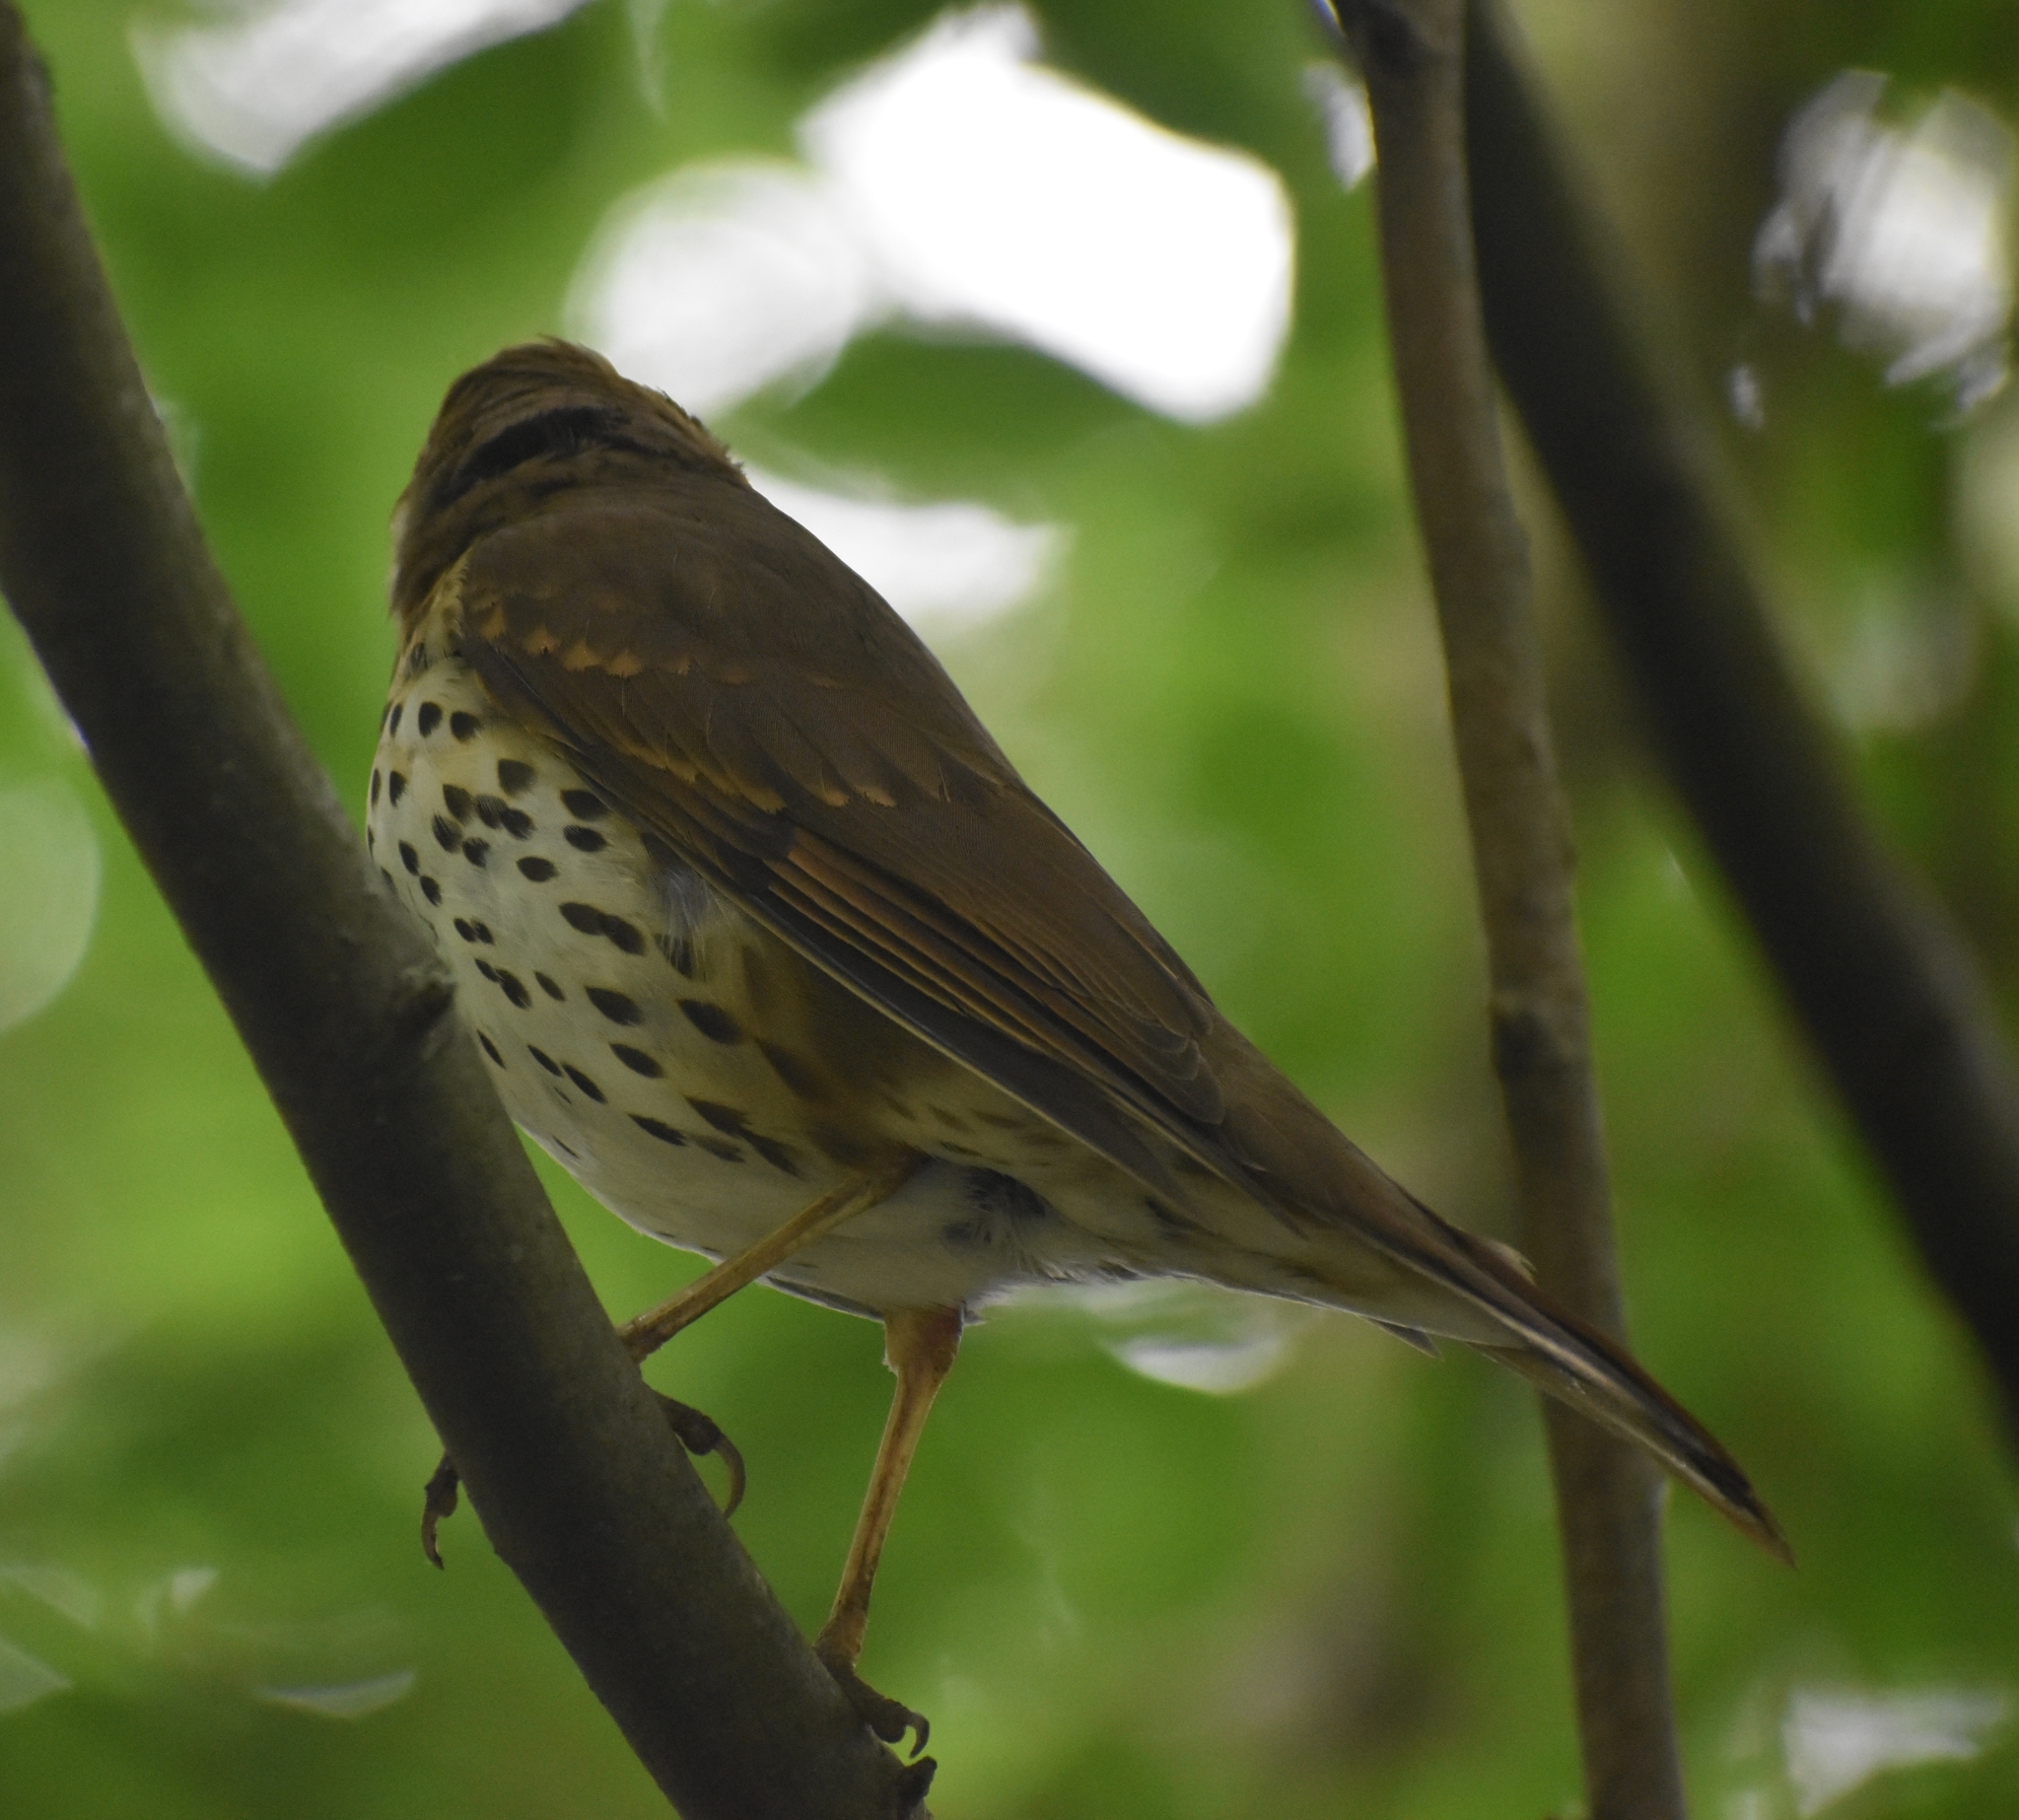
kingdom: Animalia
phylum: Chordata
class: Aves
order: Passeriformes
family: Turdidae
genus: Turdus
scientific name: Turdus philomelos
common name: Song thrush
